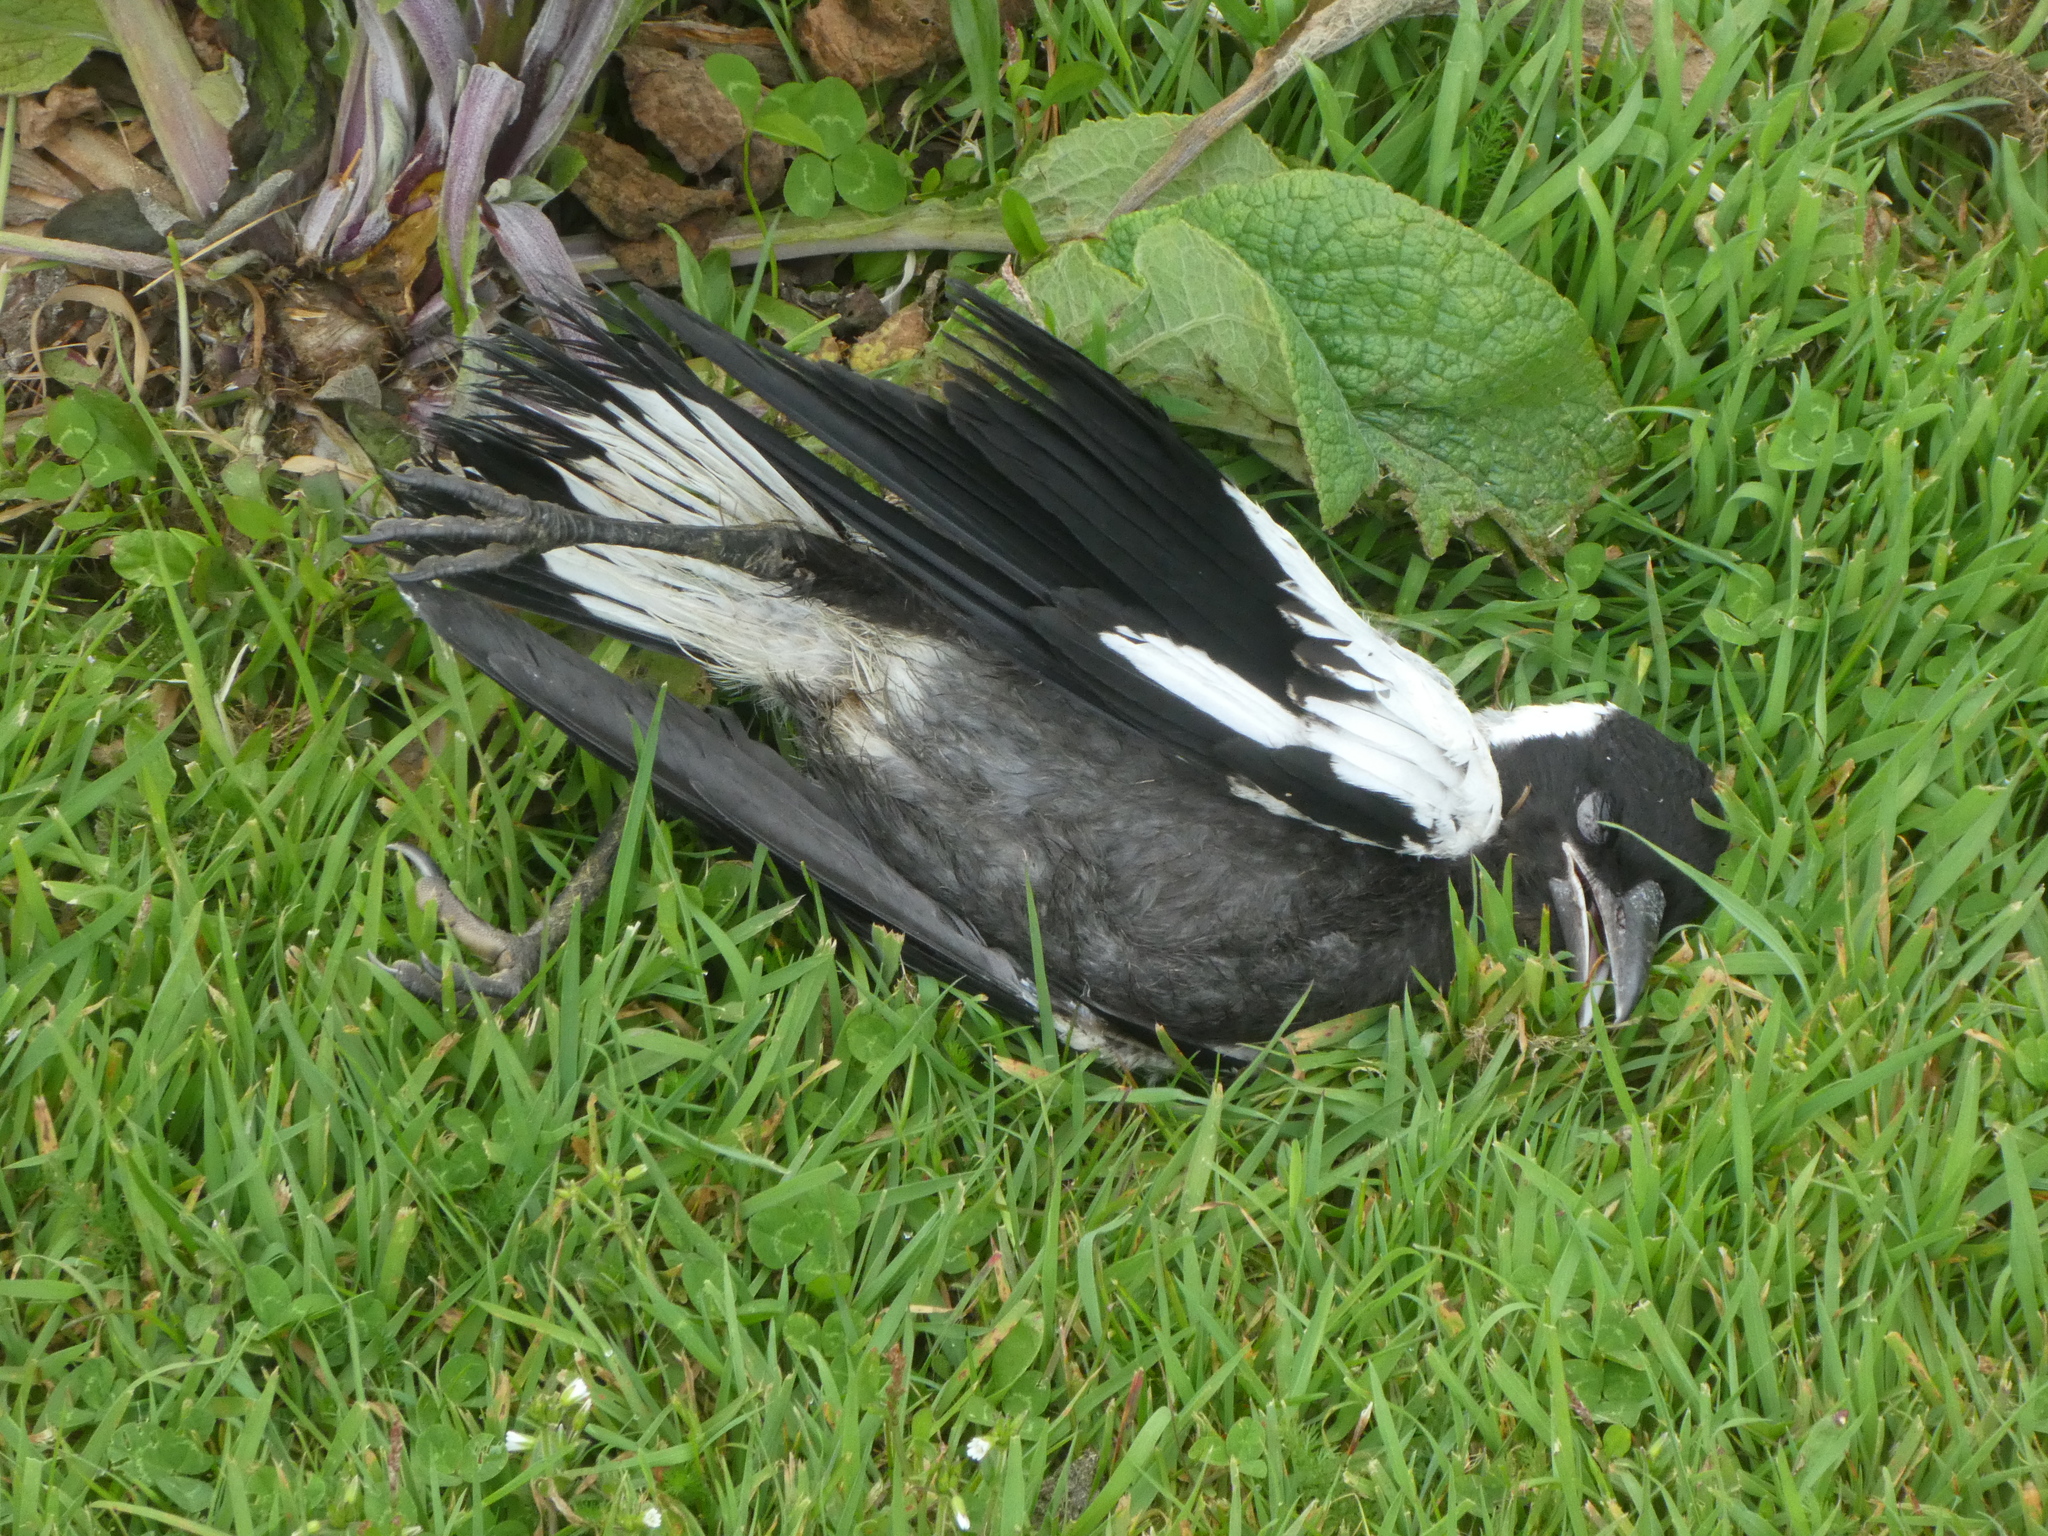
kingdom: Animalia
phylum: Chordata
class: Aves
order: Passeriformes
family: Cracticidae
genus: Gymnorhina
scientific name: Gymnorhina tibicen
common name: Australian magpie
